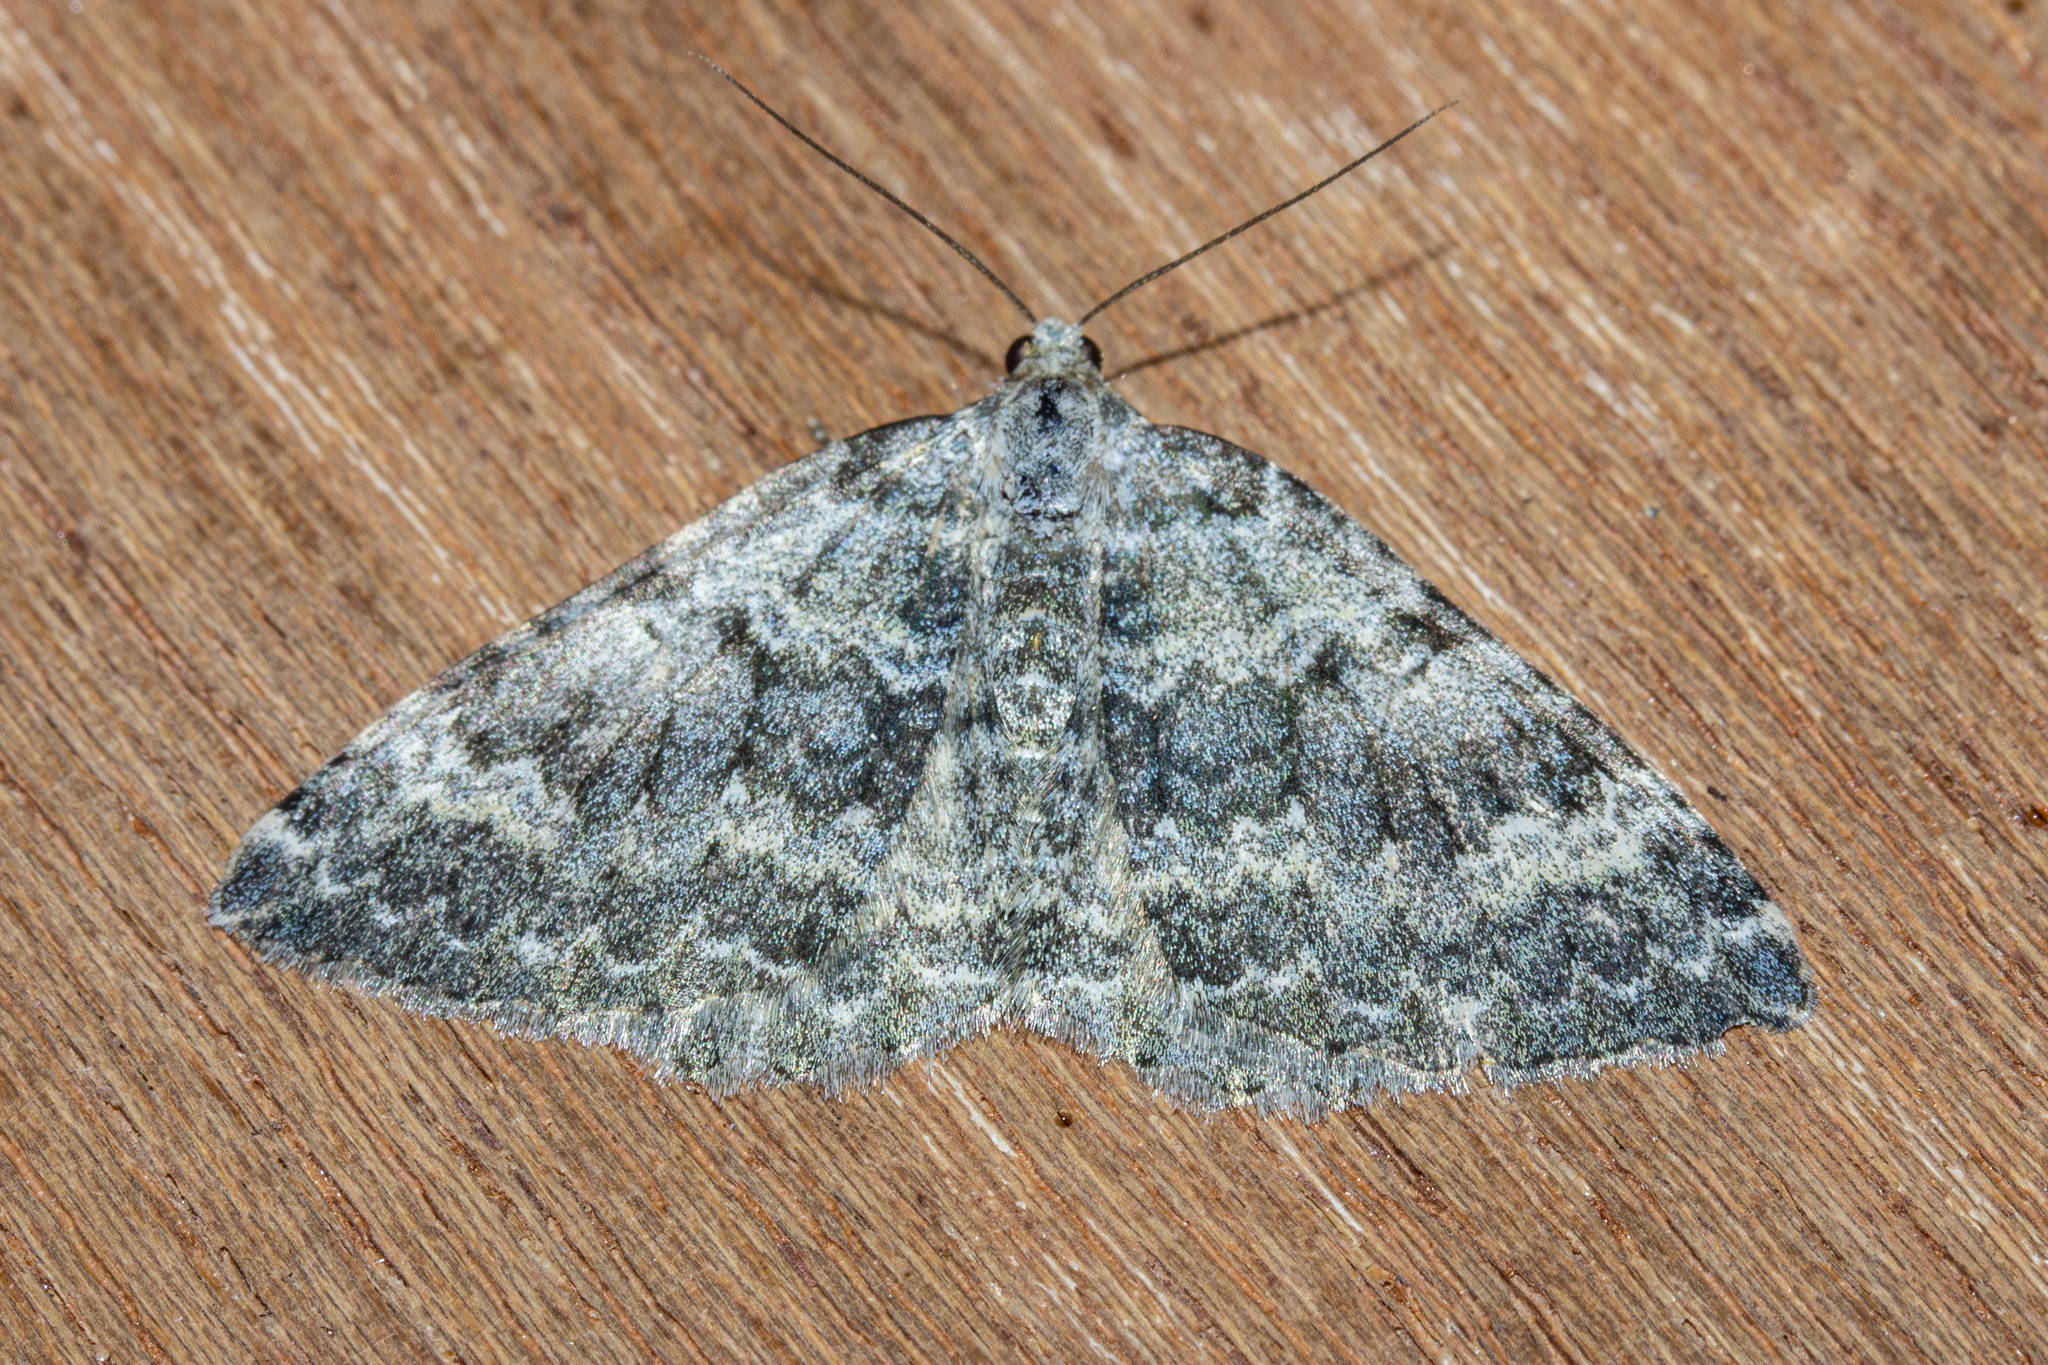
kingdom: Animalia
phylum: Arthropoda
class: Insecta
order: Lepidoptera
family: Geometridae
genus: Gingidiobora
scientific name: Gingidiobora subobscurata
